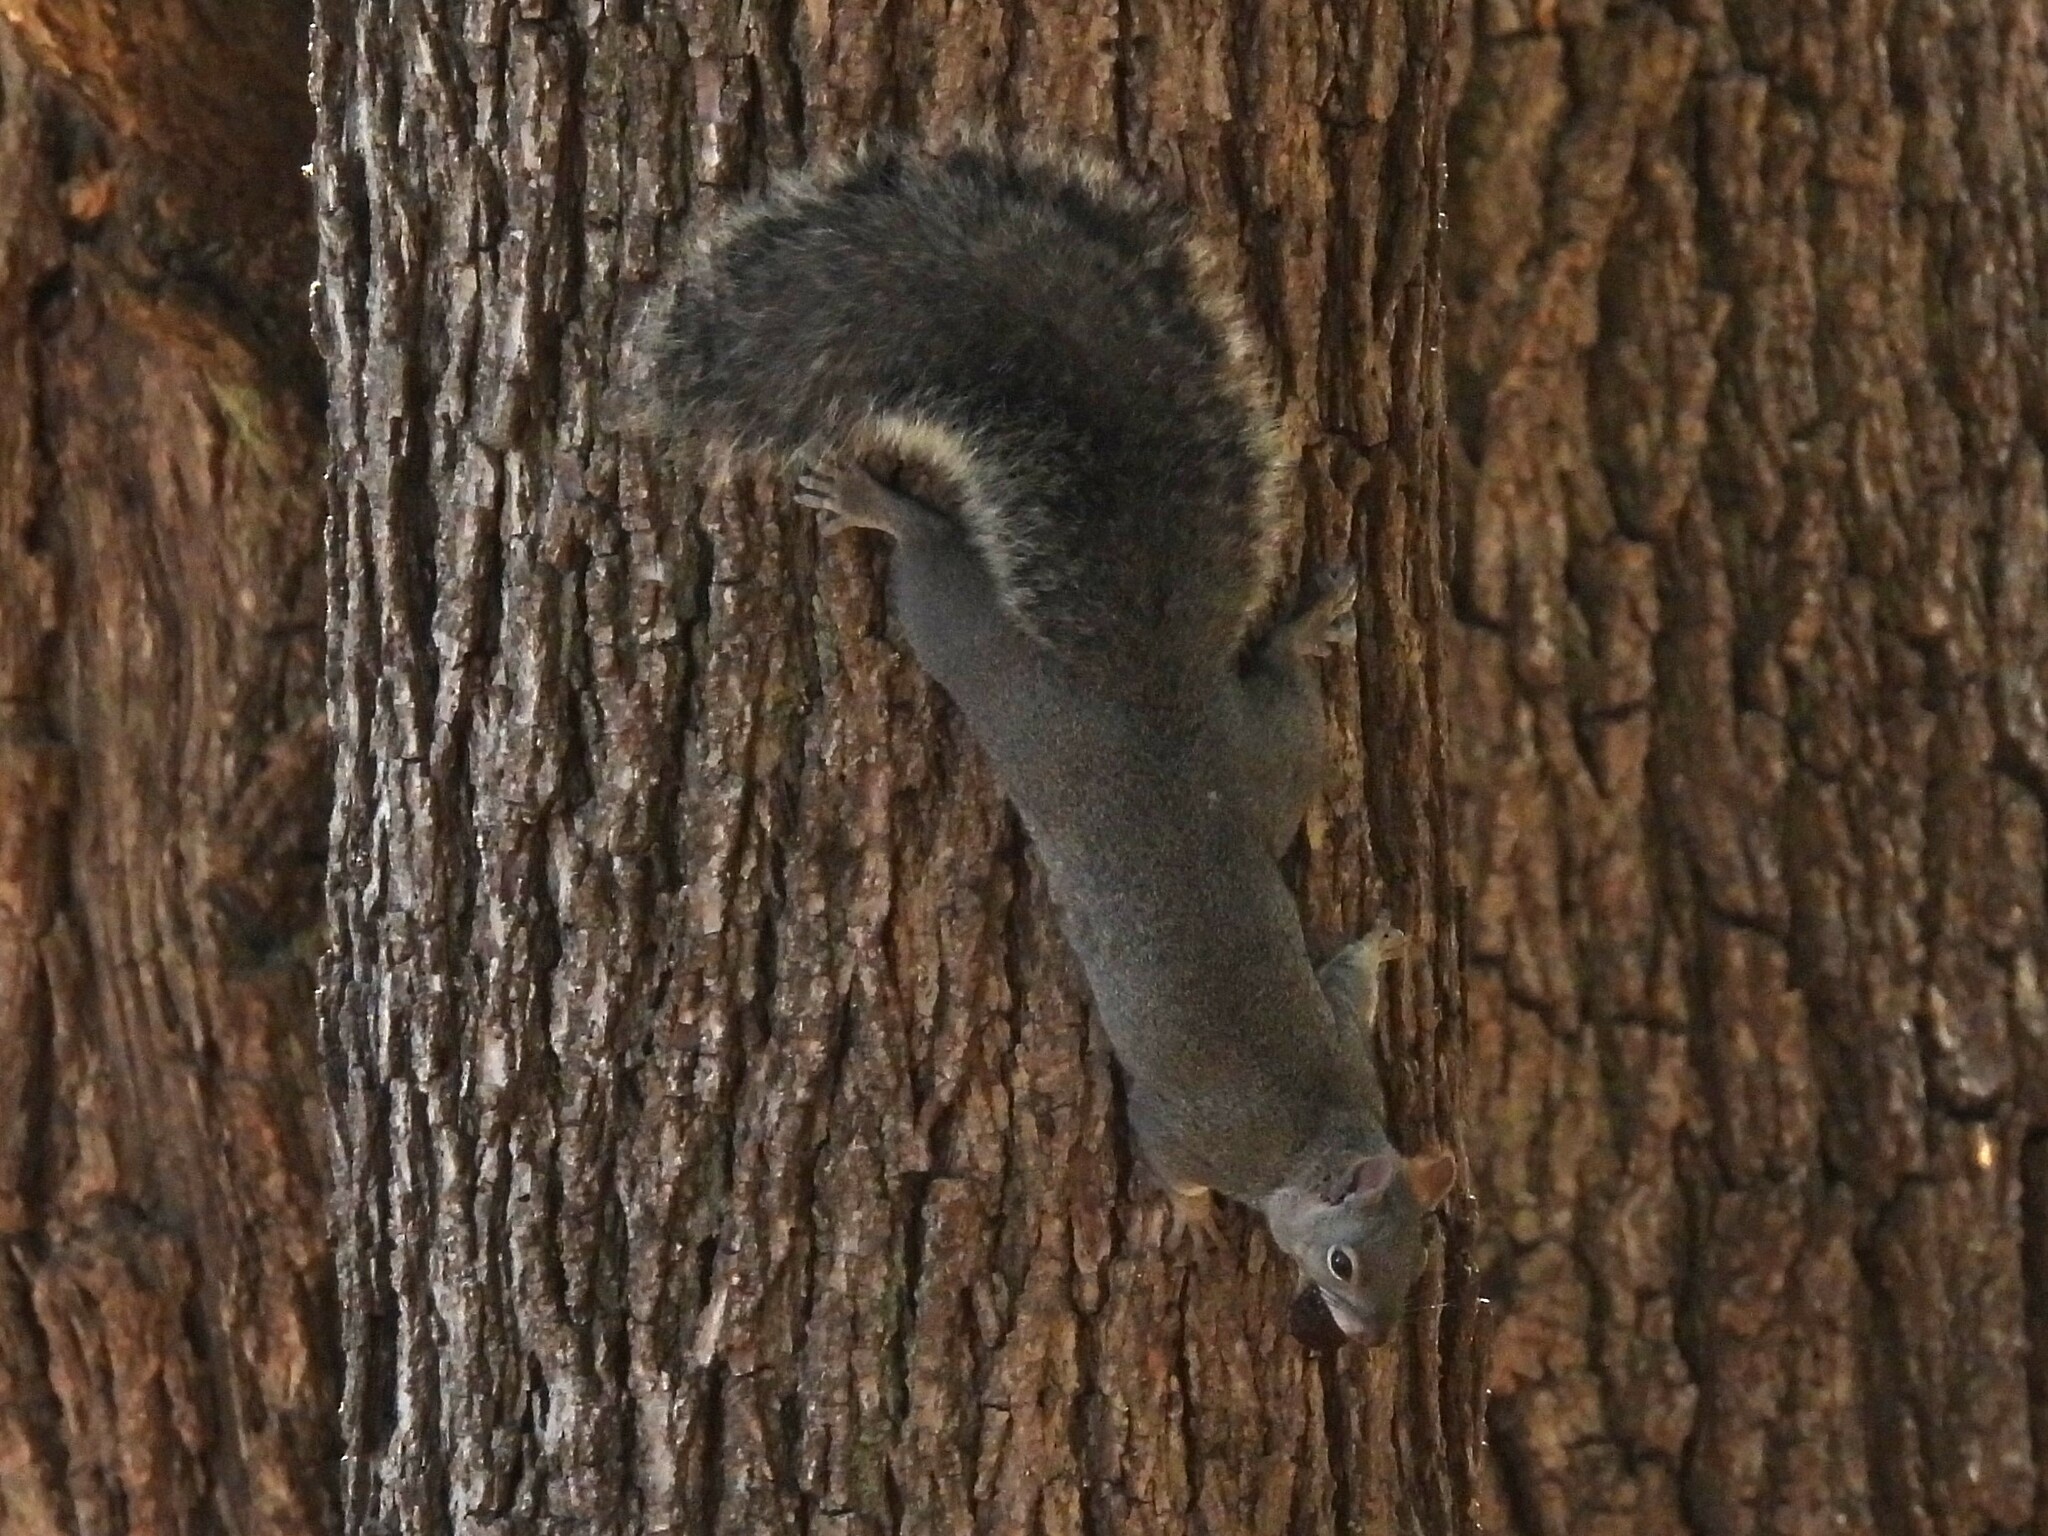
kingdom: Animalia
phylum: Chordata
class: Mammalia
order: Rodentia
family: Sciuridae
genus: Sciurus
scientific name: Sciurus griseus
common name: Western gray squirrel
